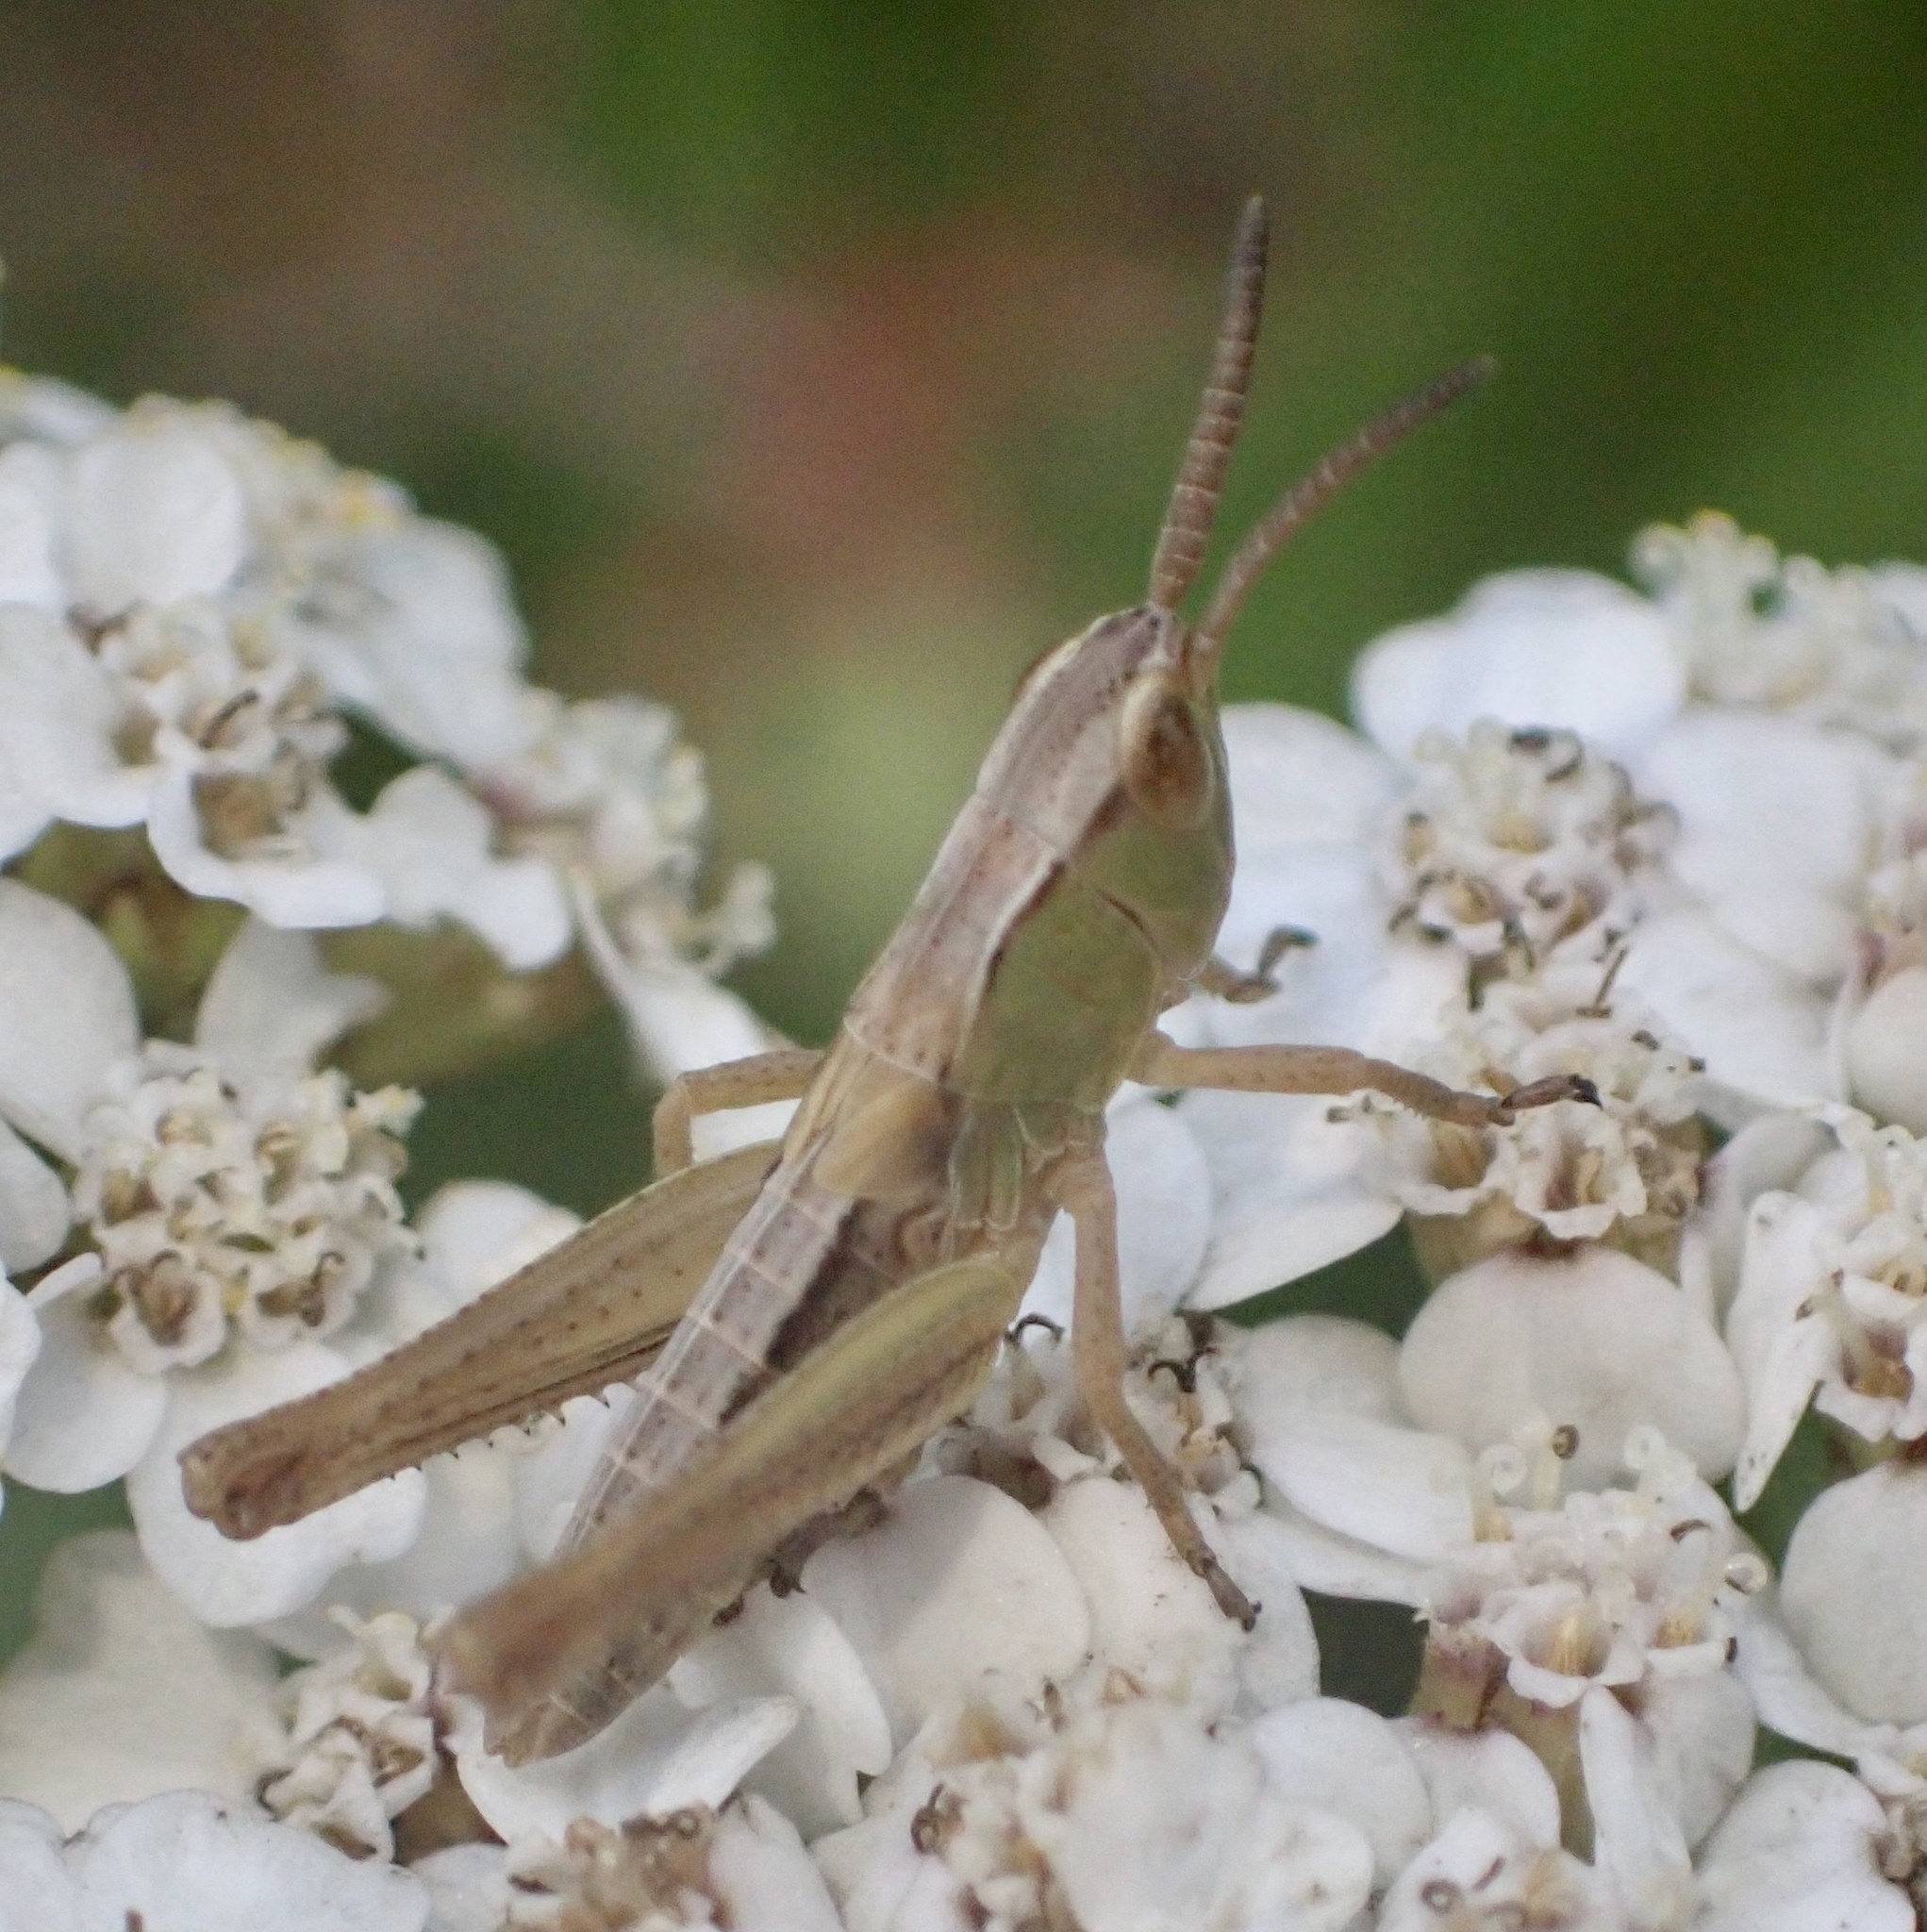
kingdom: Animalia
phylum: Arthropoda
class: Insecta
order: Orthoptera
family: Acrididae
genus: Pseudochorthippus
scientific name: Pseudochorthippus parallelus
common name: Meadow grasshopper
